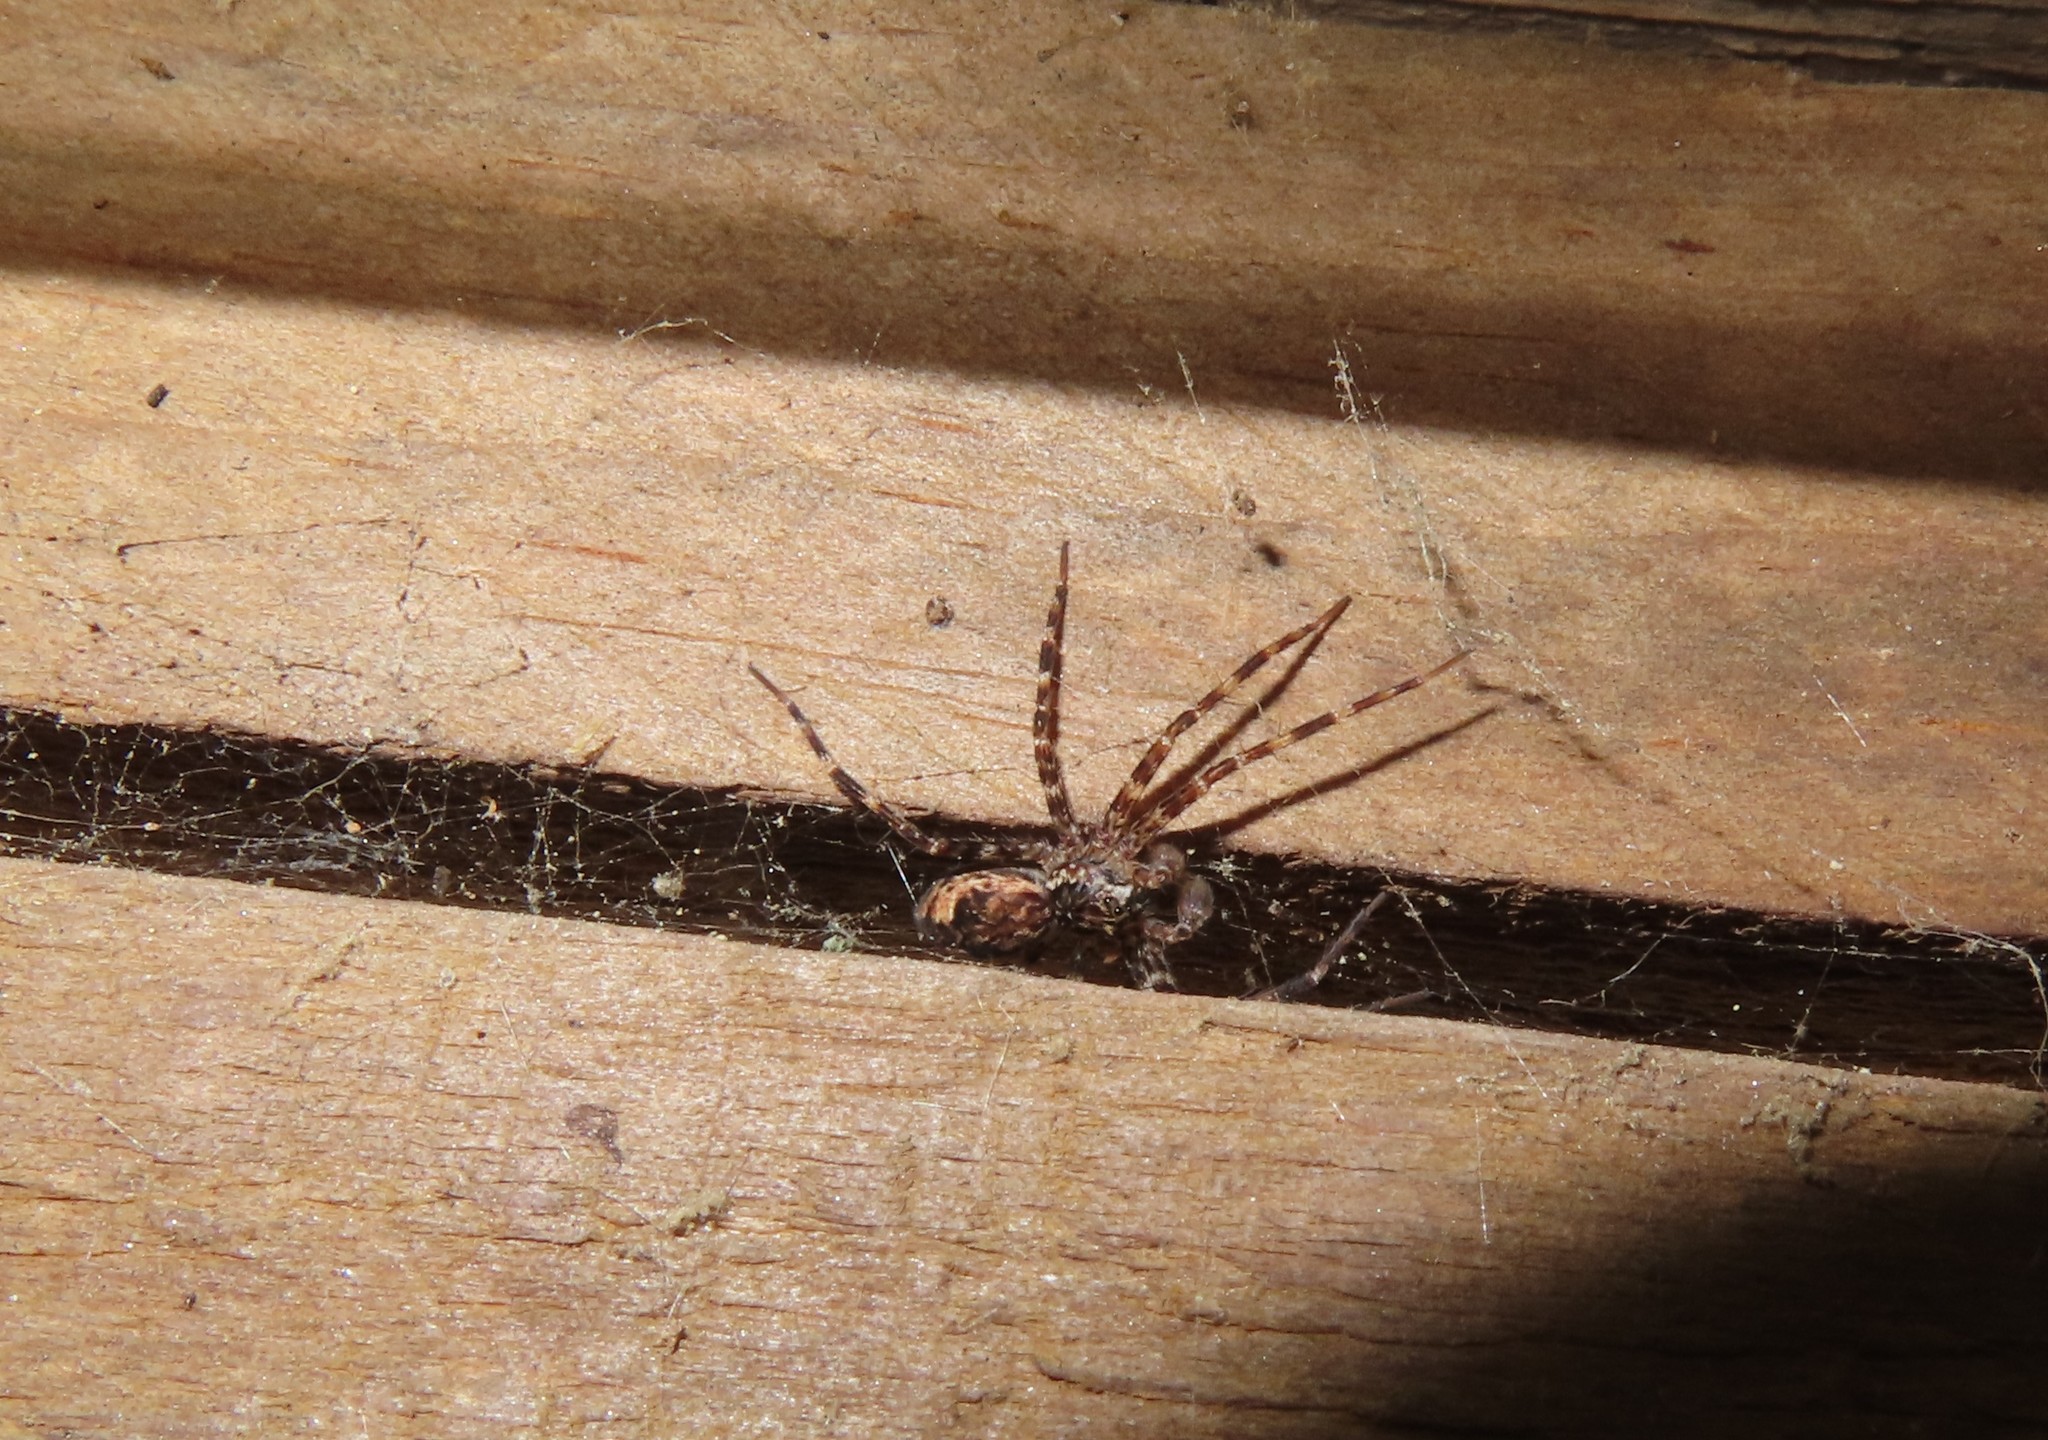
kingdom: Animalia
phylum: Arthropoda
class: Arachnida
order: Araneae
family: Pisauridae
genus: Dolomedes
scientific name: Dolomedes tenebrosus
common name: Dark fishing spider
